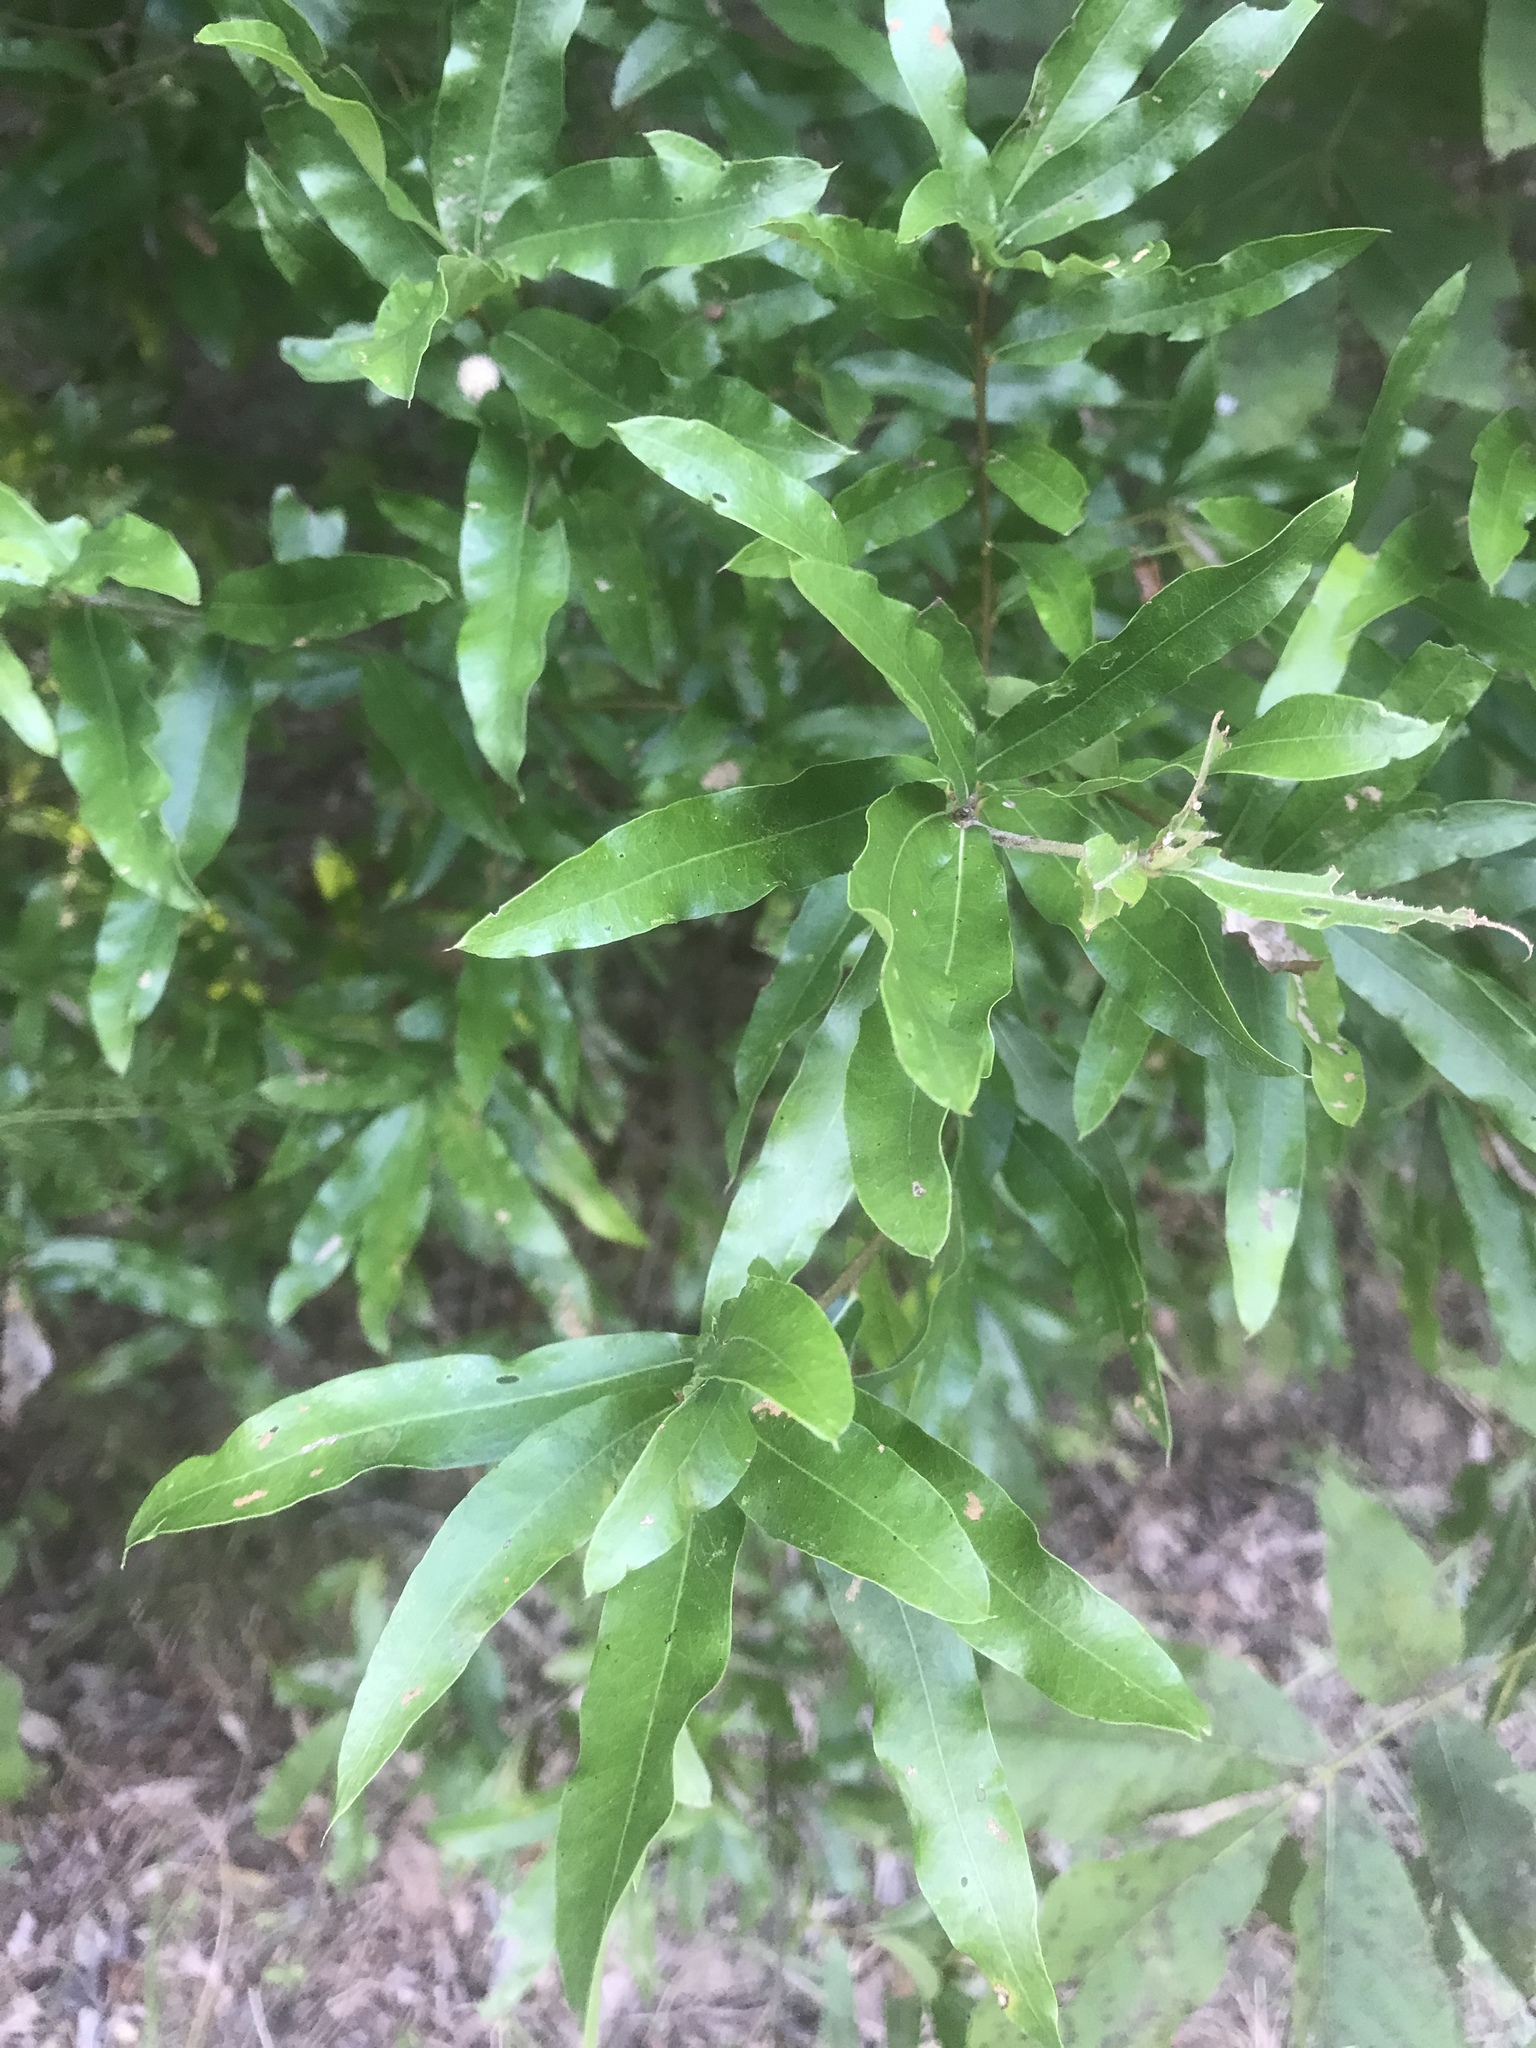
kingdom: Plantae
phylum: Tracheophyta
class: Magnoliopsida
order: Fagales
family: Fagaceae
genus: Quercus
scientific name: Quercus phellos
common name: Willow oak
